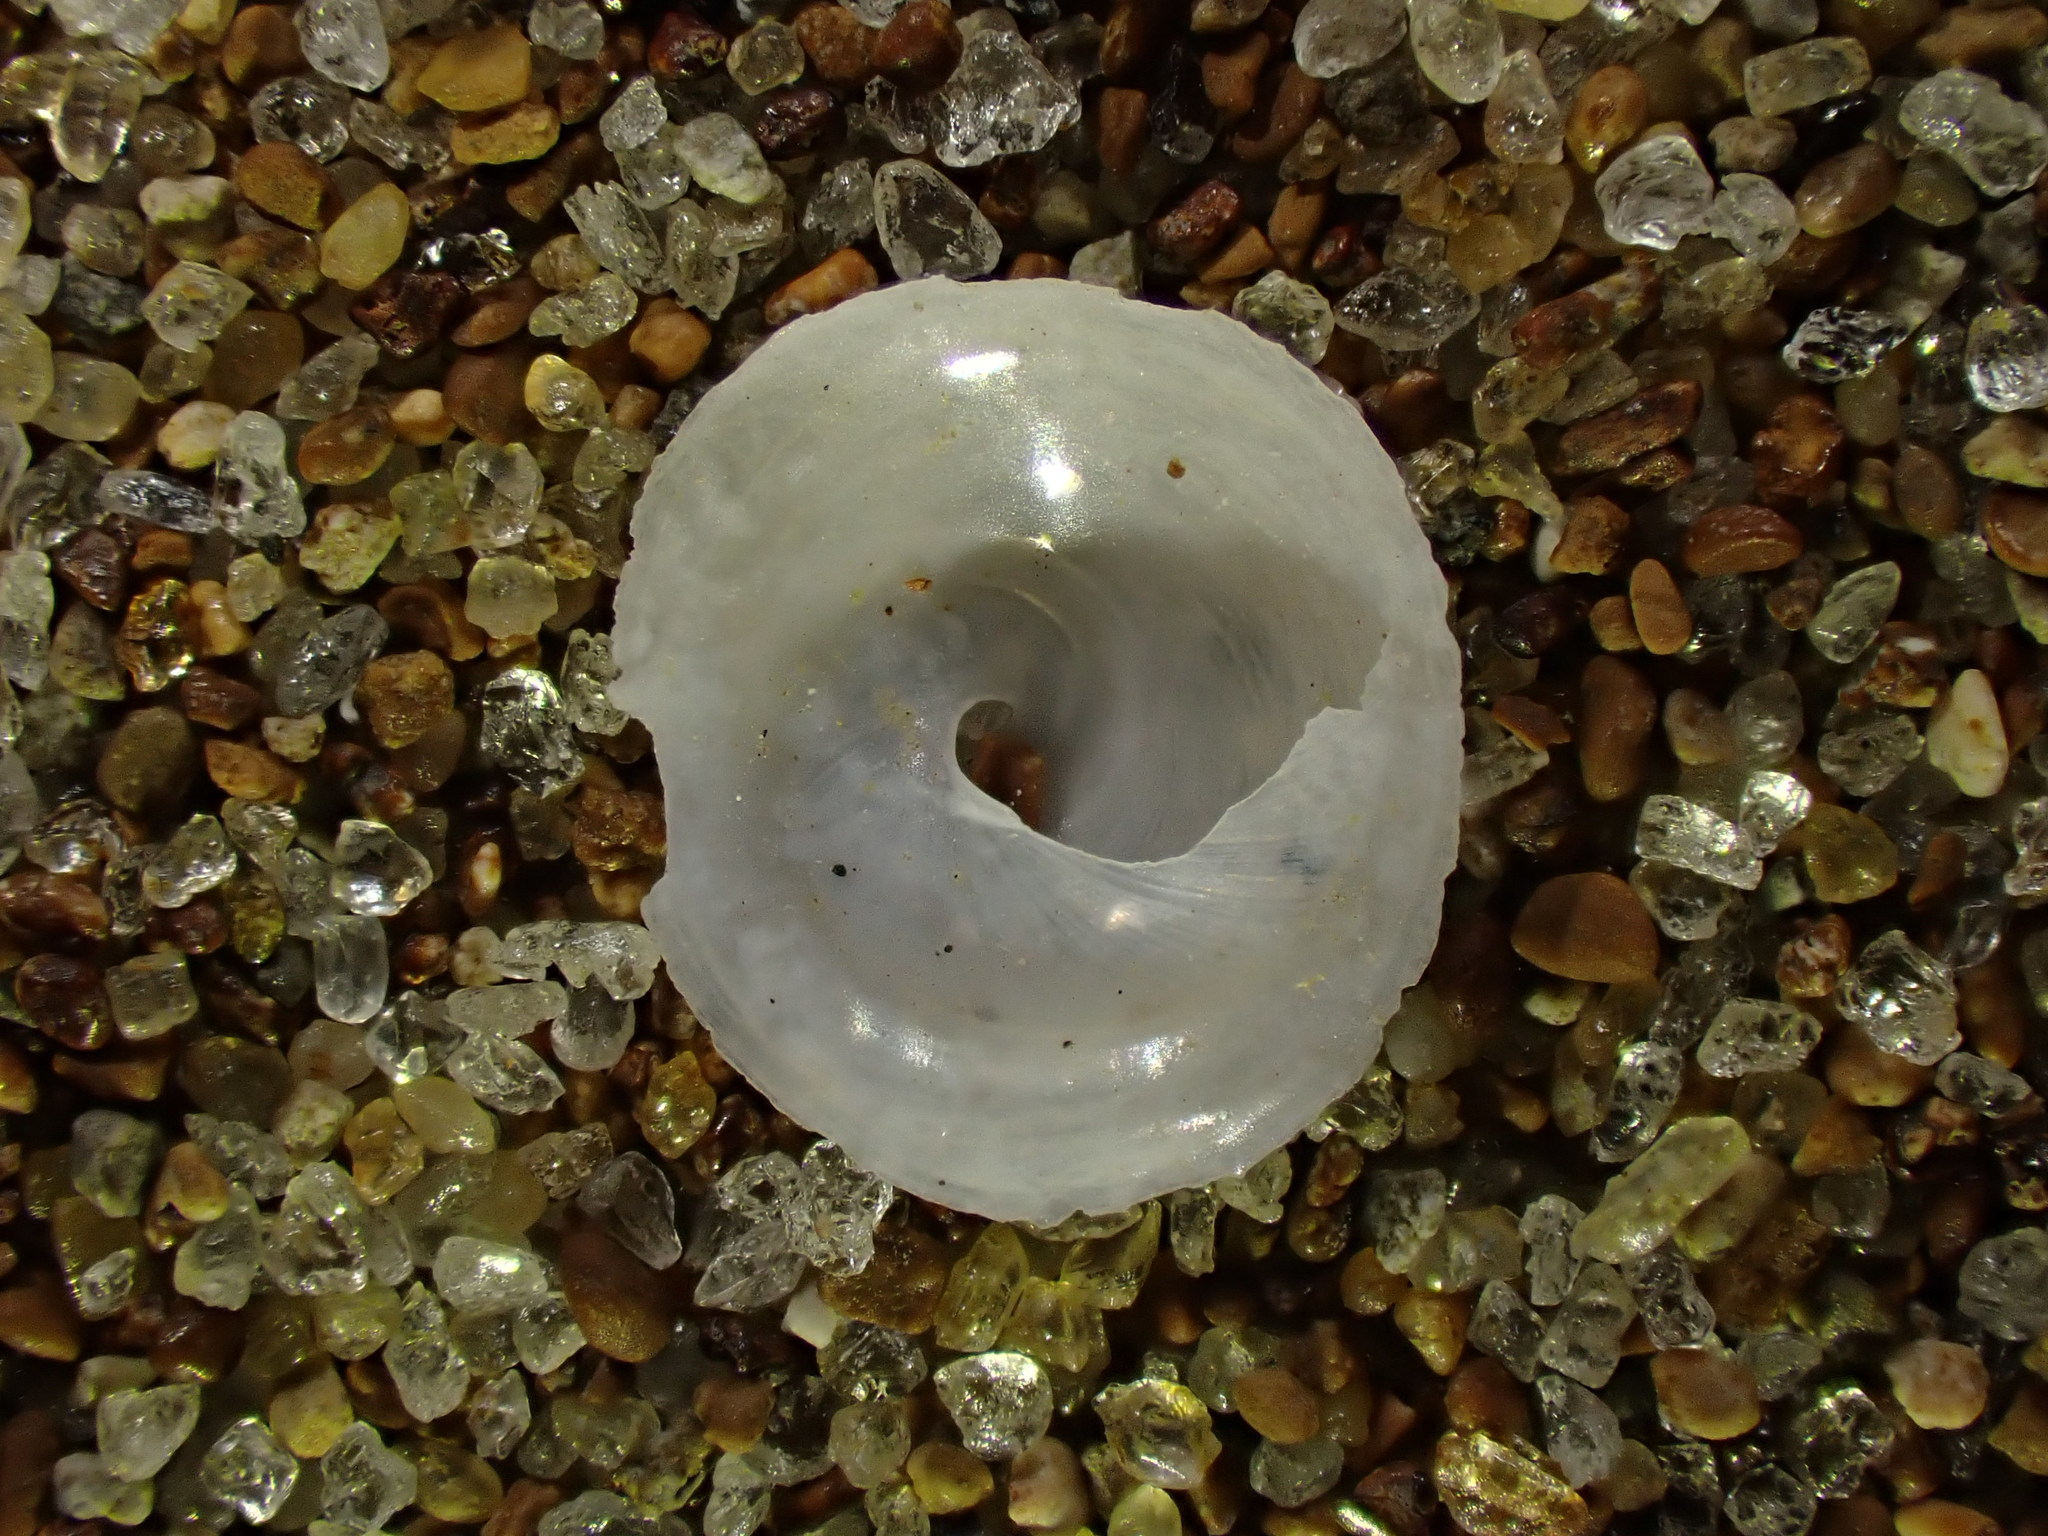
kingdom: Animalia
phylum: Mollusca
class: Gastropoda
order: Littorinimorpha
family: Calyptraeidae
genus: Sigapatella
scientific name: Sigapatella tenuis
